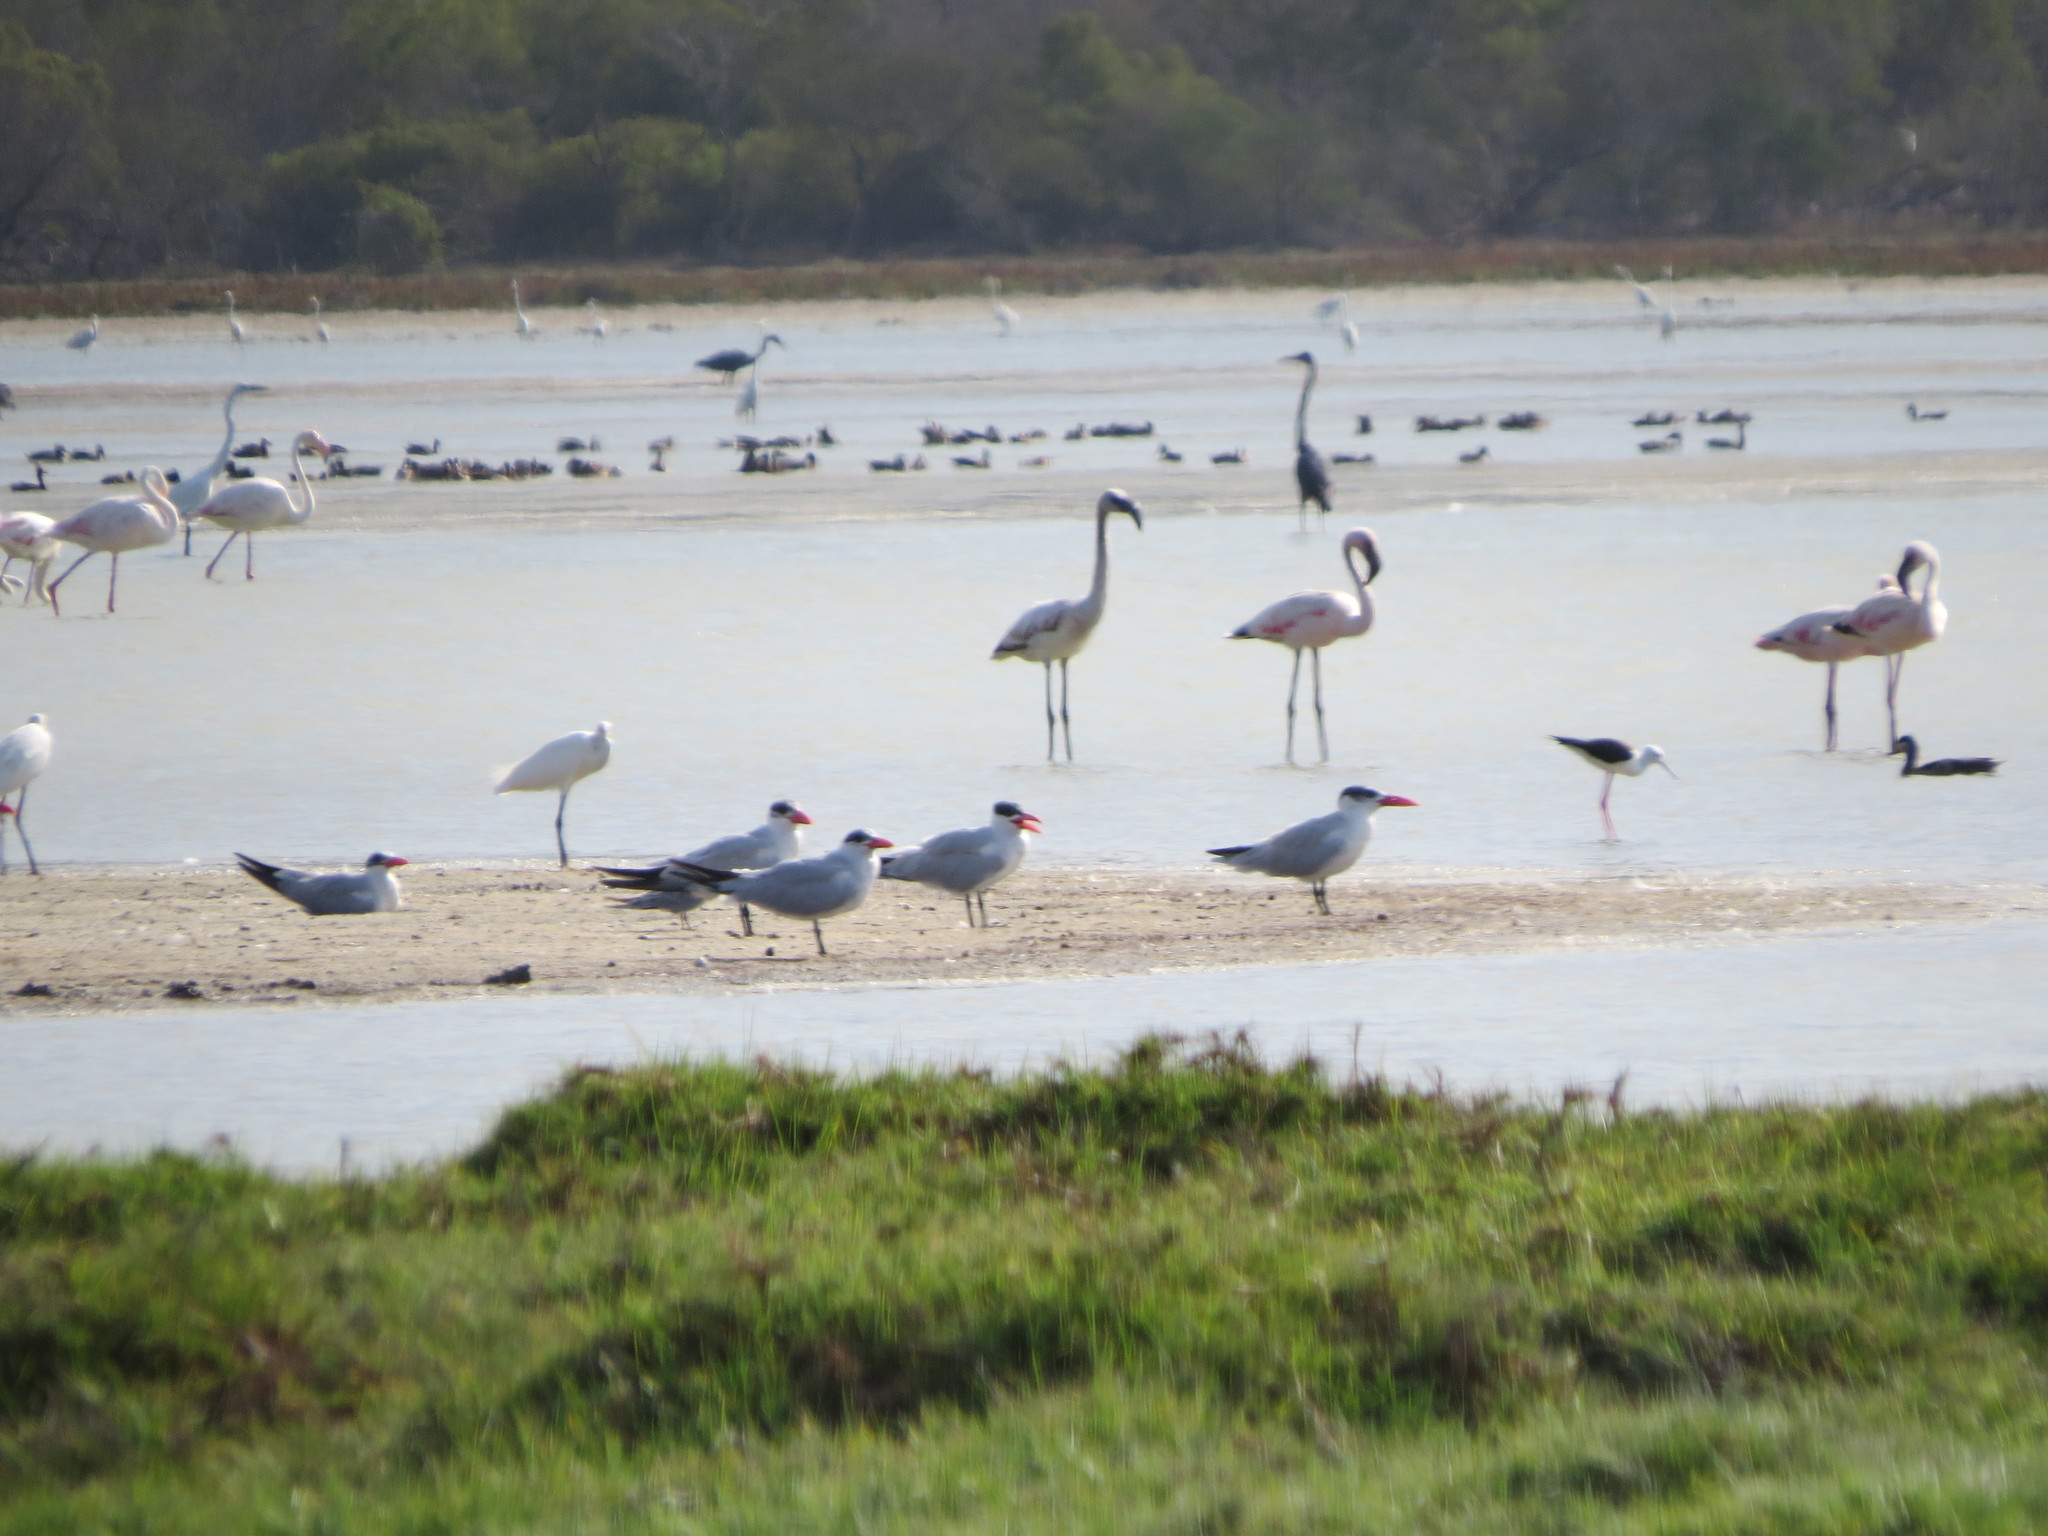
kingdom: Animalia
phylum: Chordata
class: Aves
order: Charadriiformes
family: Laridae
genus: Hydroprogne
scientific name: Hydroprogne caspia
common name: Caspian tern
